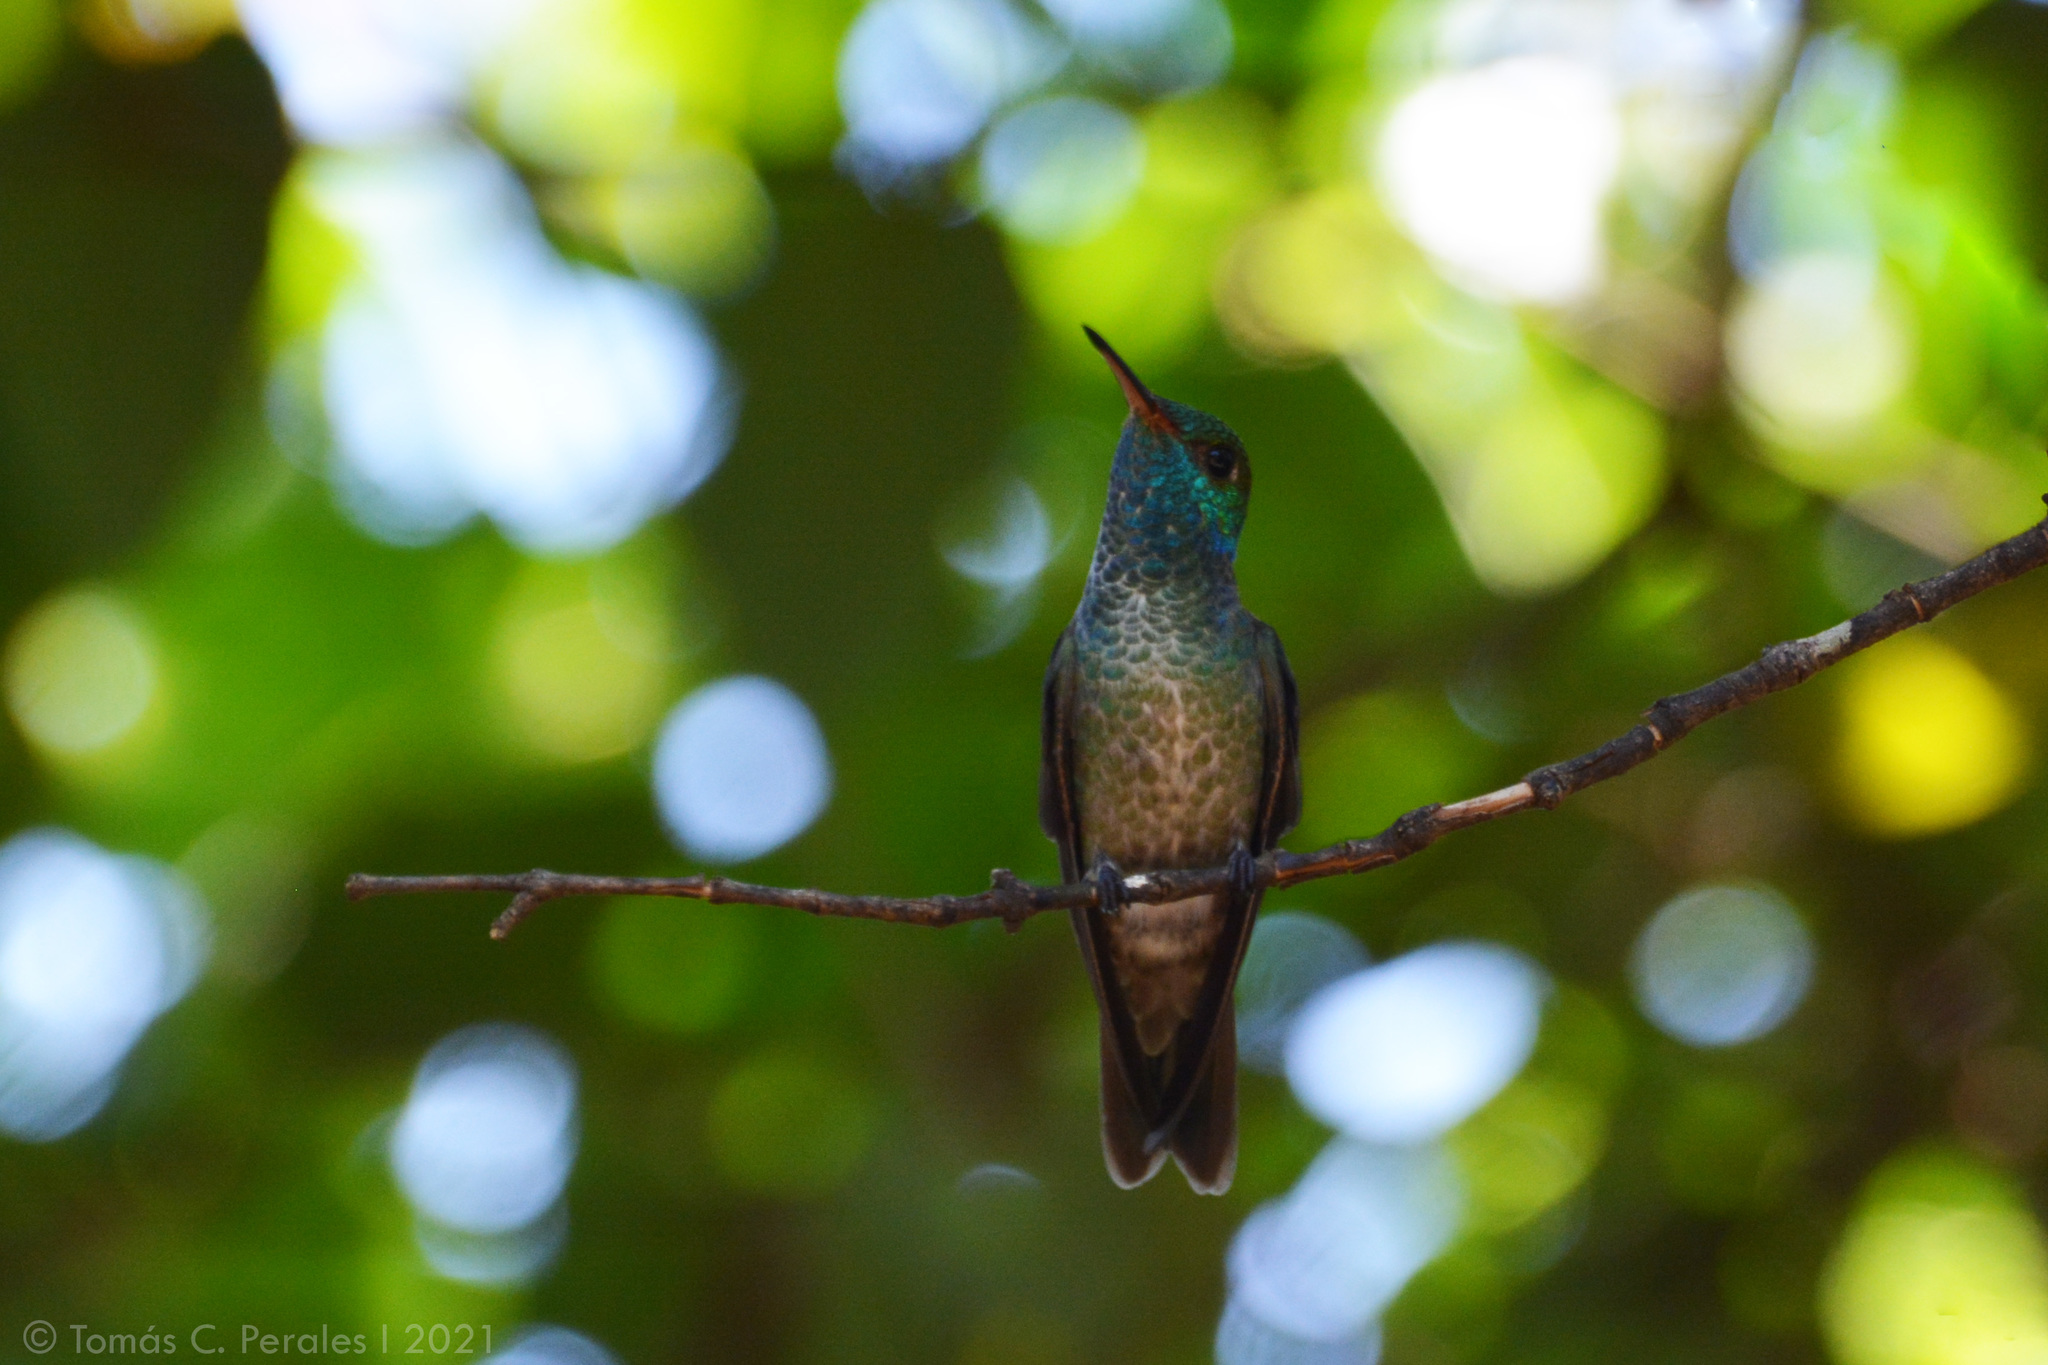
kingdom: Animalia
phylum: Chordata
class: Aves
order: Apodiformes
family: Trochilidae
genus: Chrysuronia
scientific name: Chrysuronia versicolor
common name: Versicolored emerald
